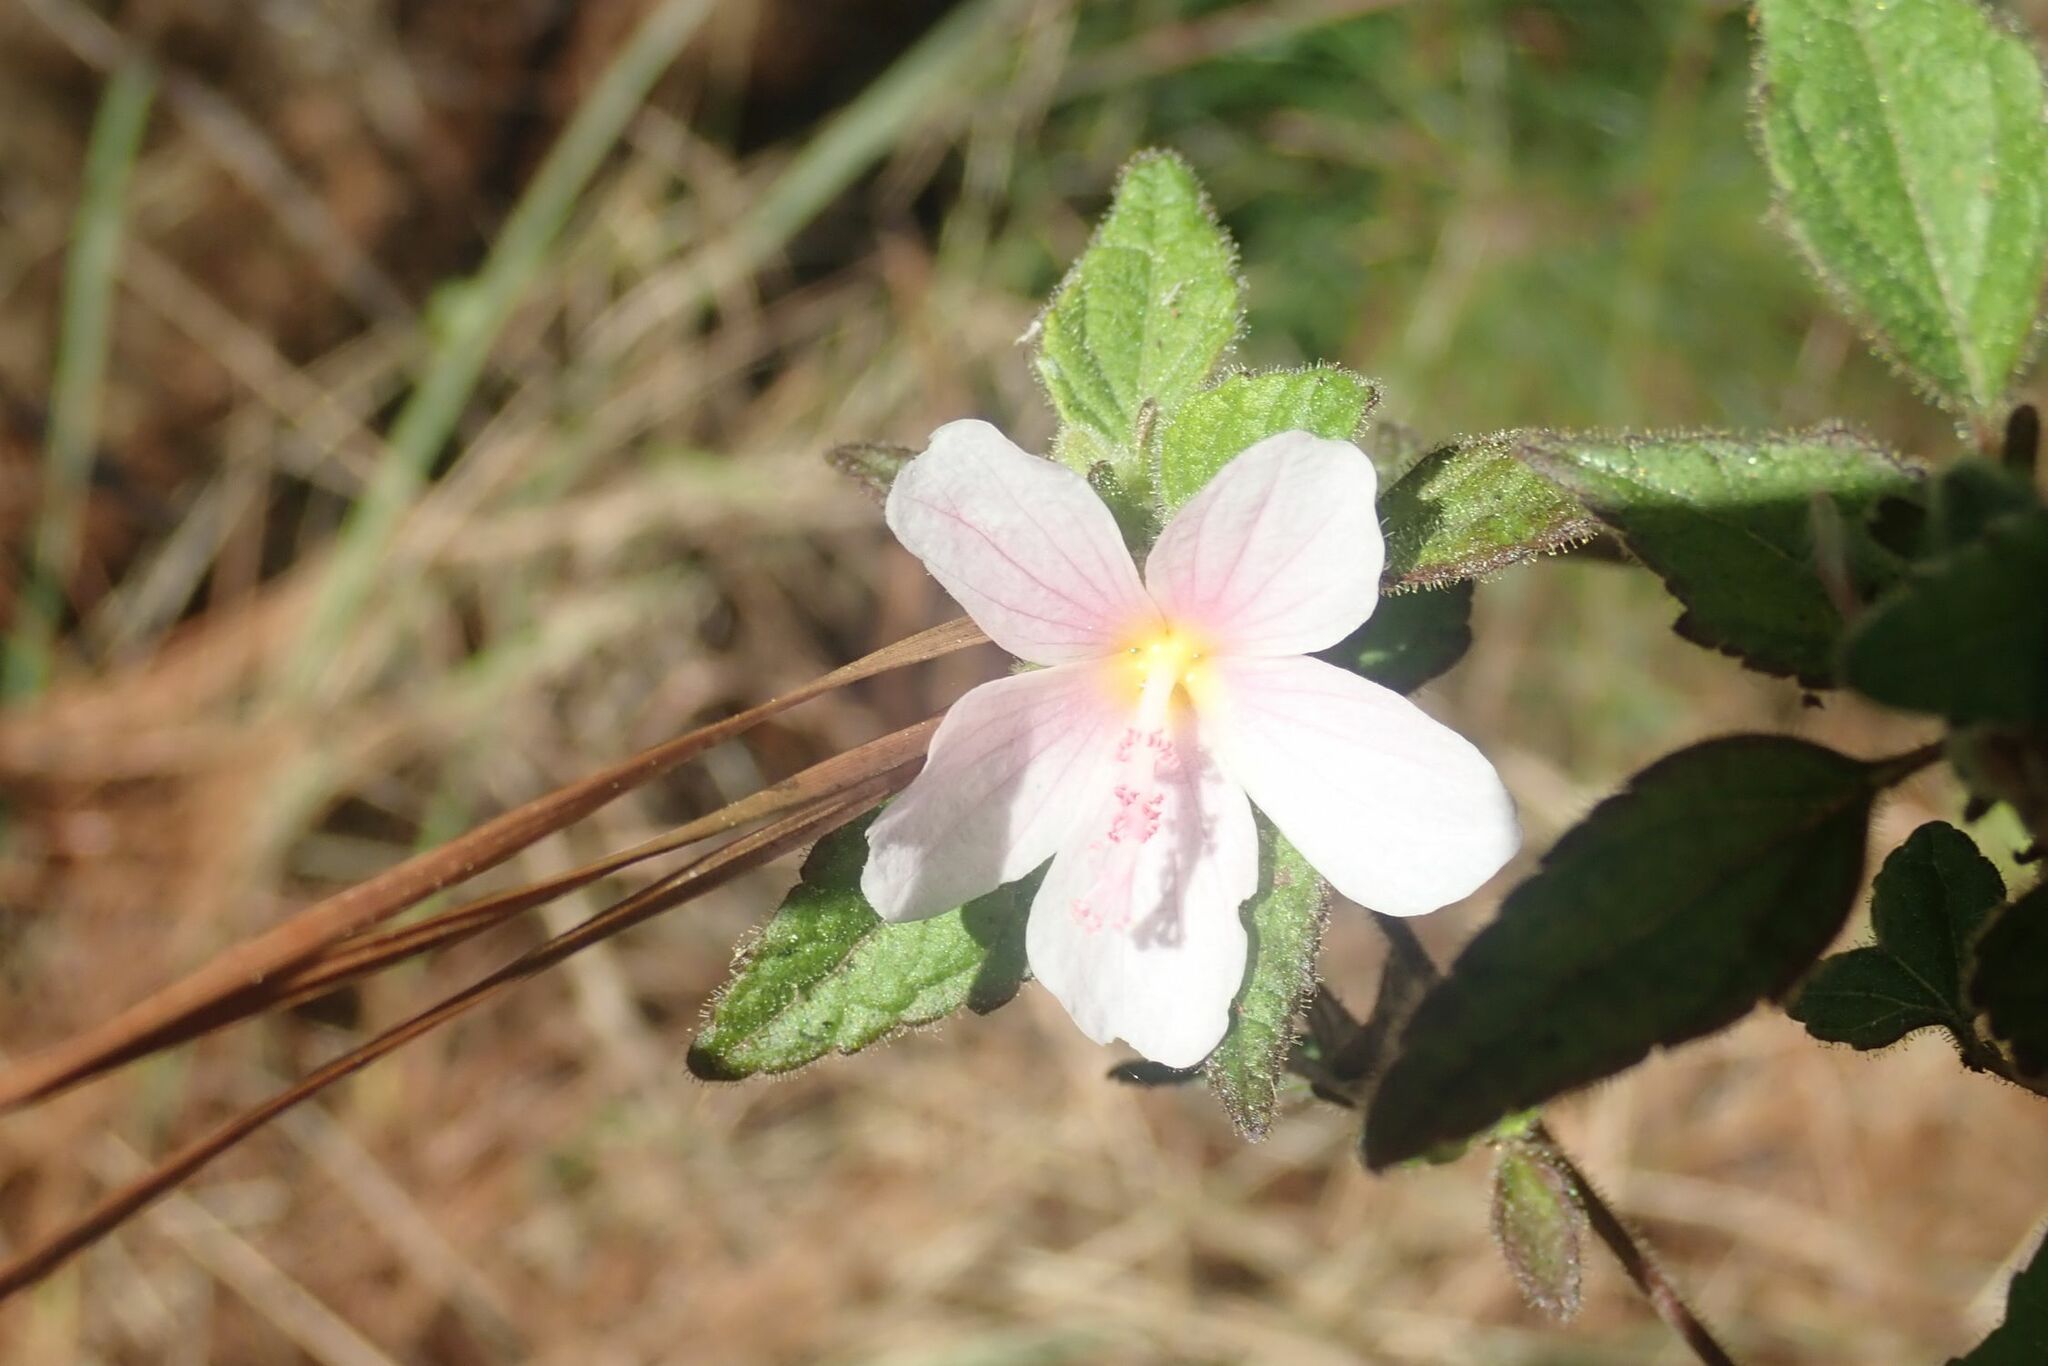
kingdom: Plantae
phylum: Tracheophyta
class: Magnoliopsida
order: Malvales
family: Malvaceae
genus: Pavonia
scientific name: Pavonia columella
